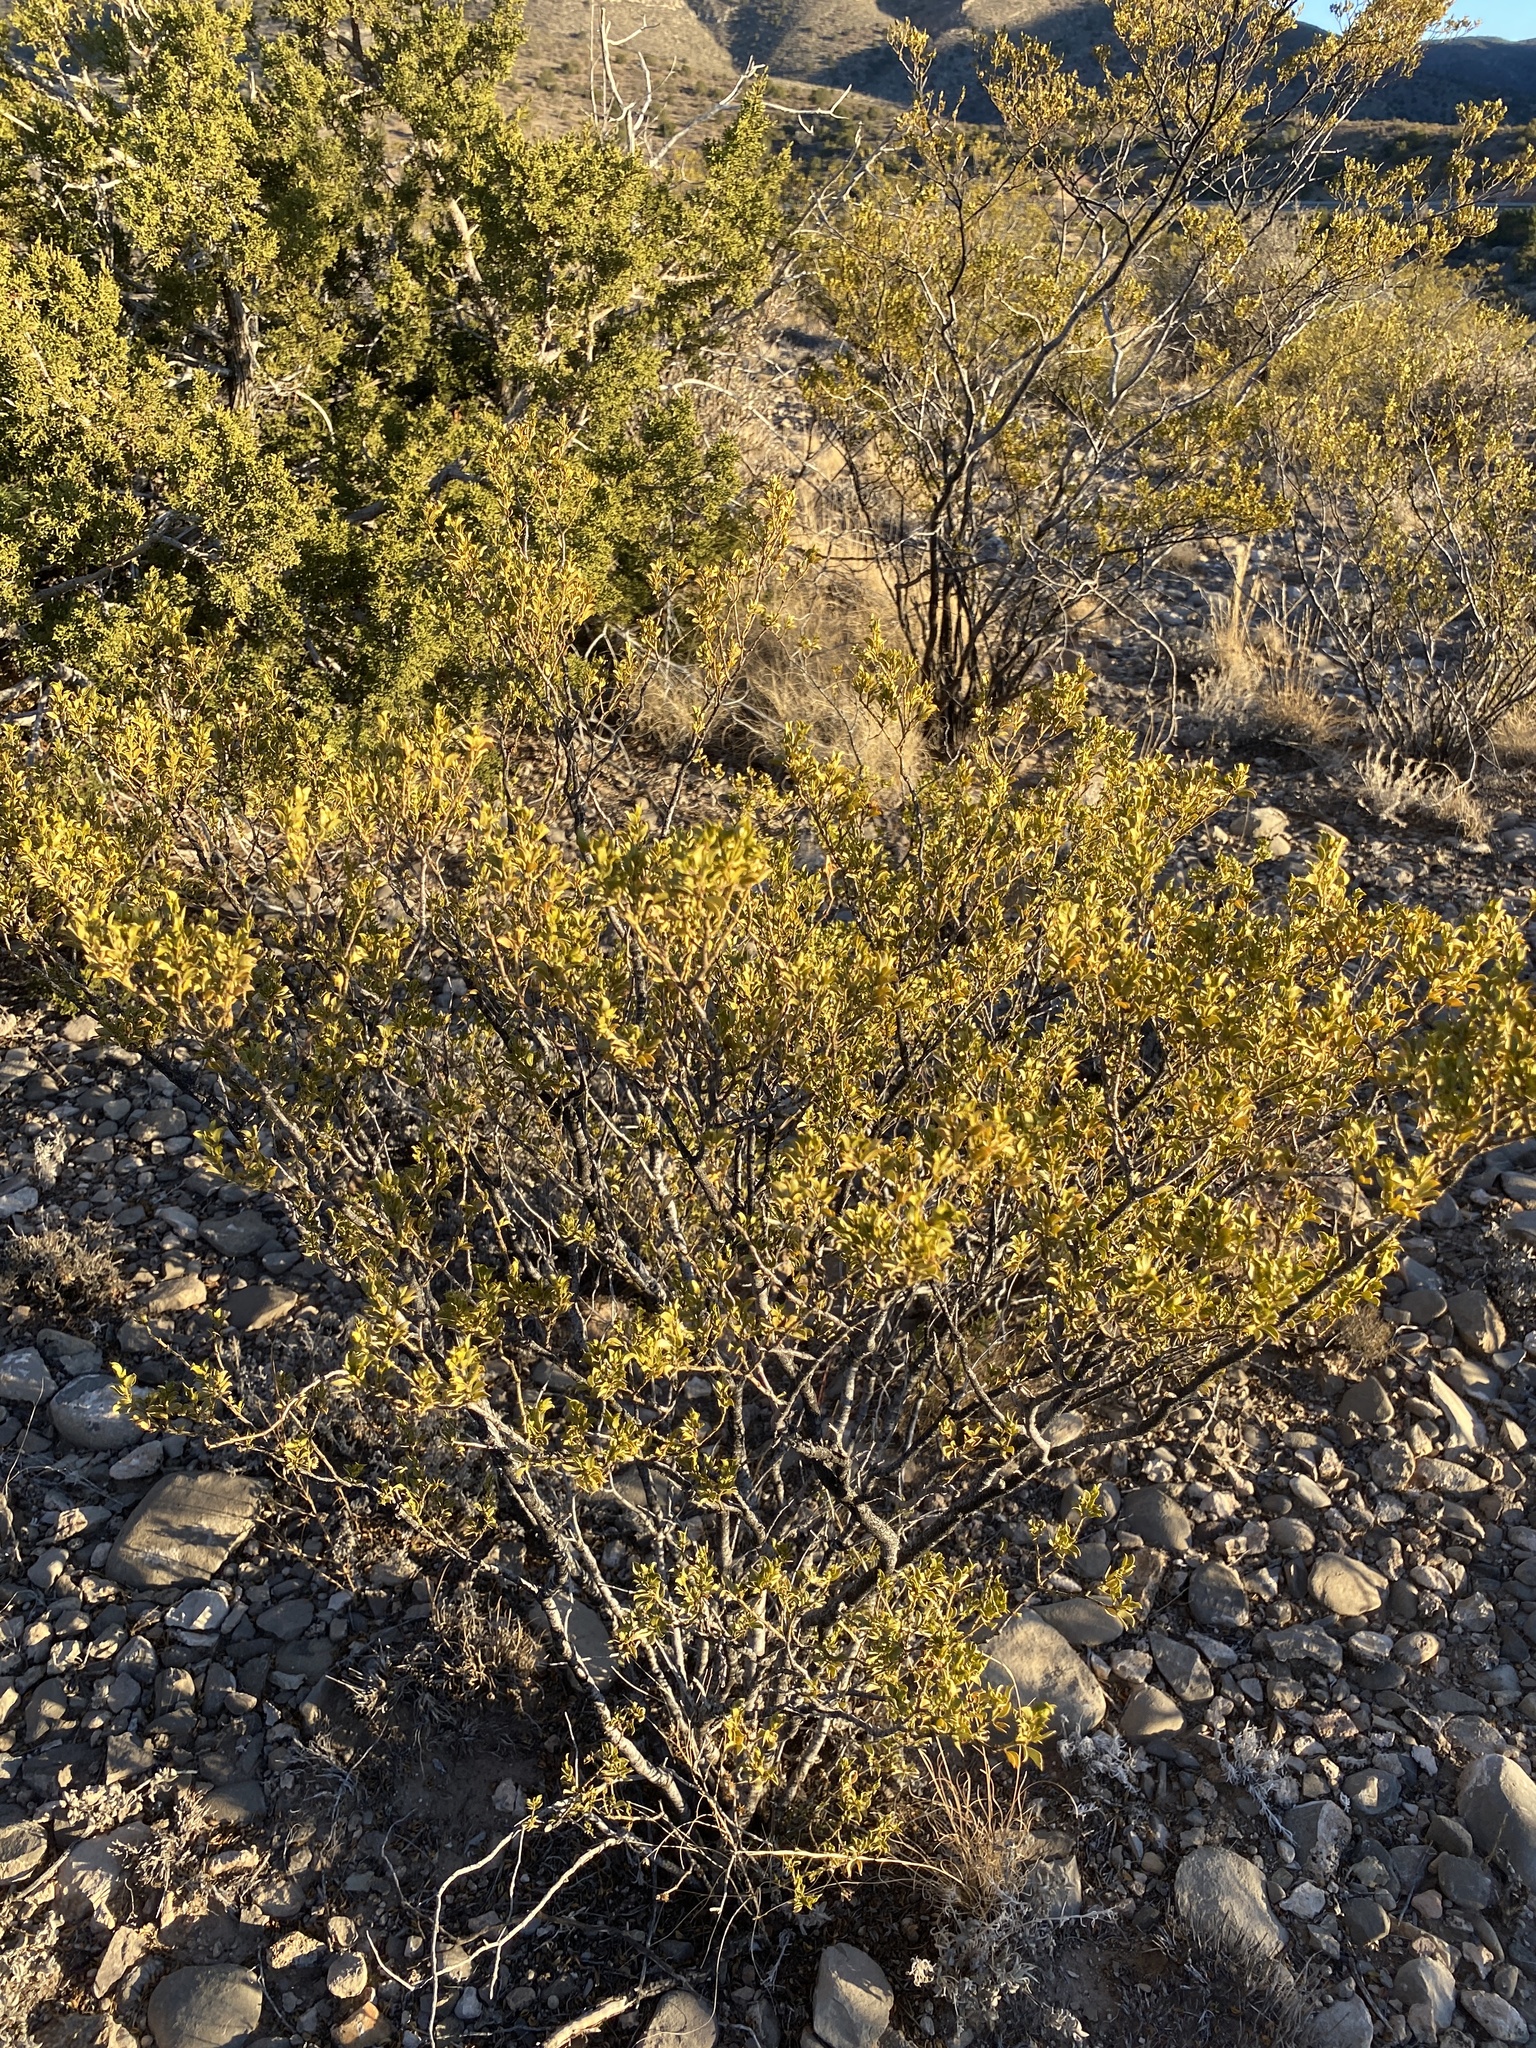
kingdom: Plantae
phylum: Tracheophyta
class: Magnoliopsida
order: Zygophyllales
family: Zygophyllaceae
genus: Larrea
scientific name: Larrea tridentata
